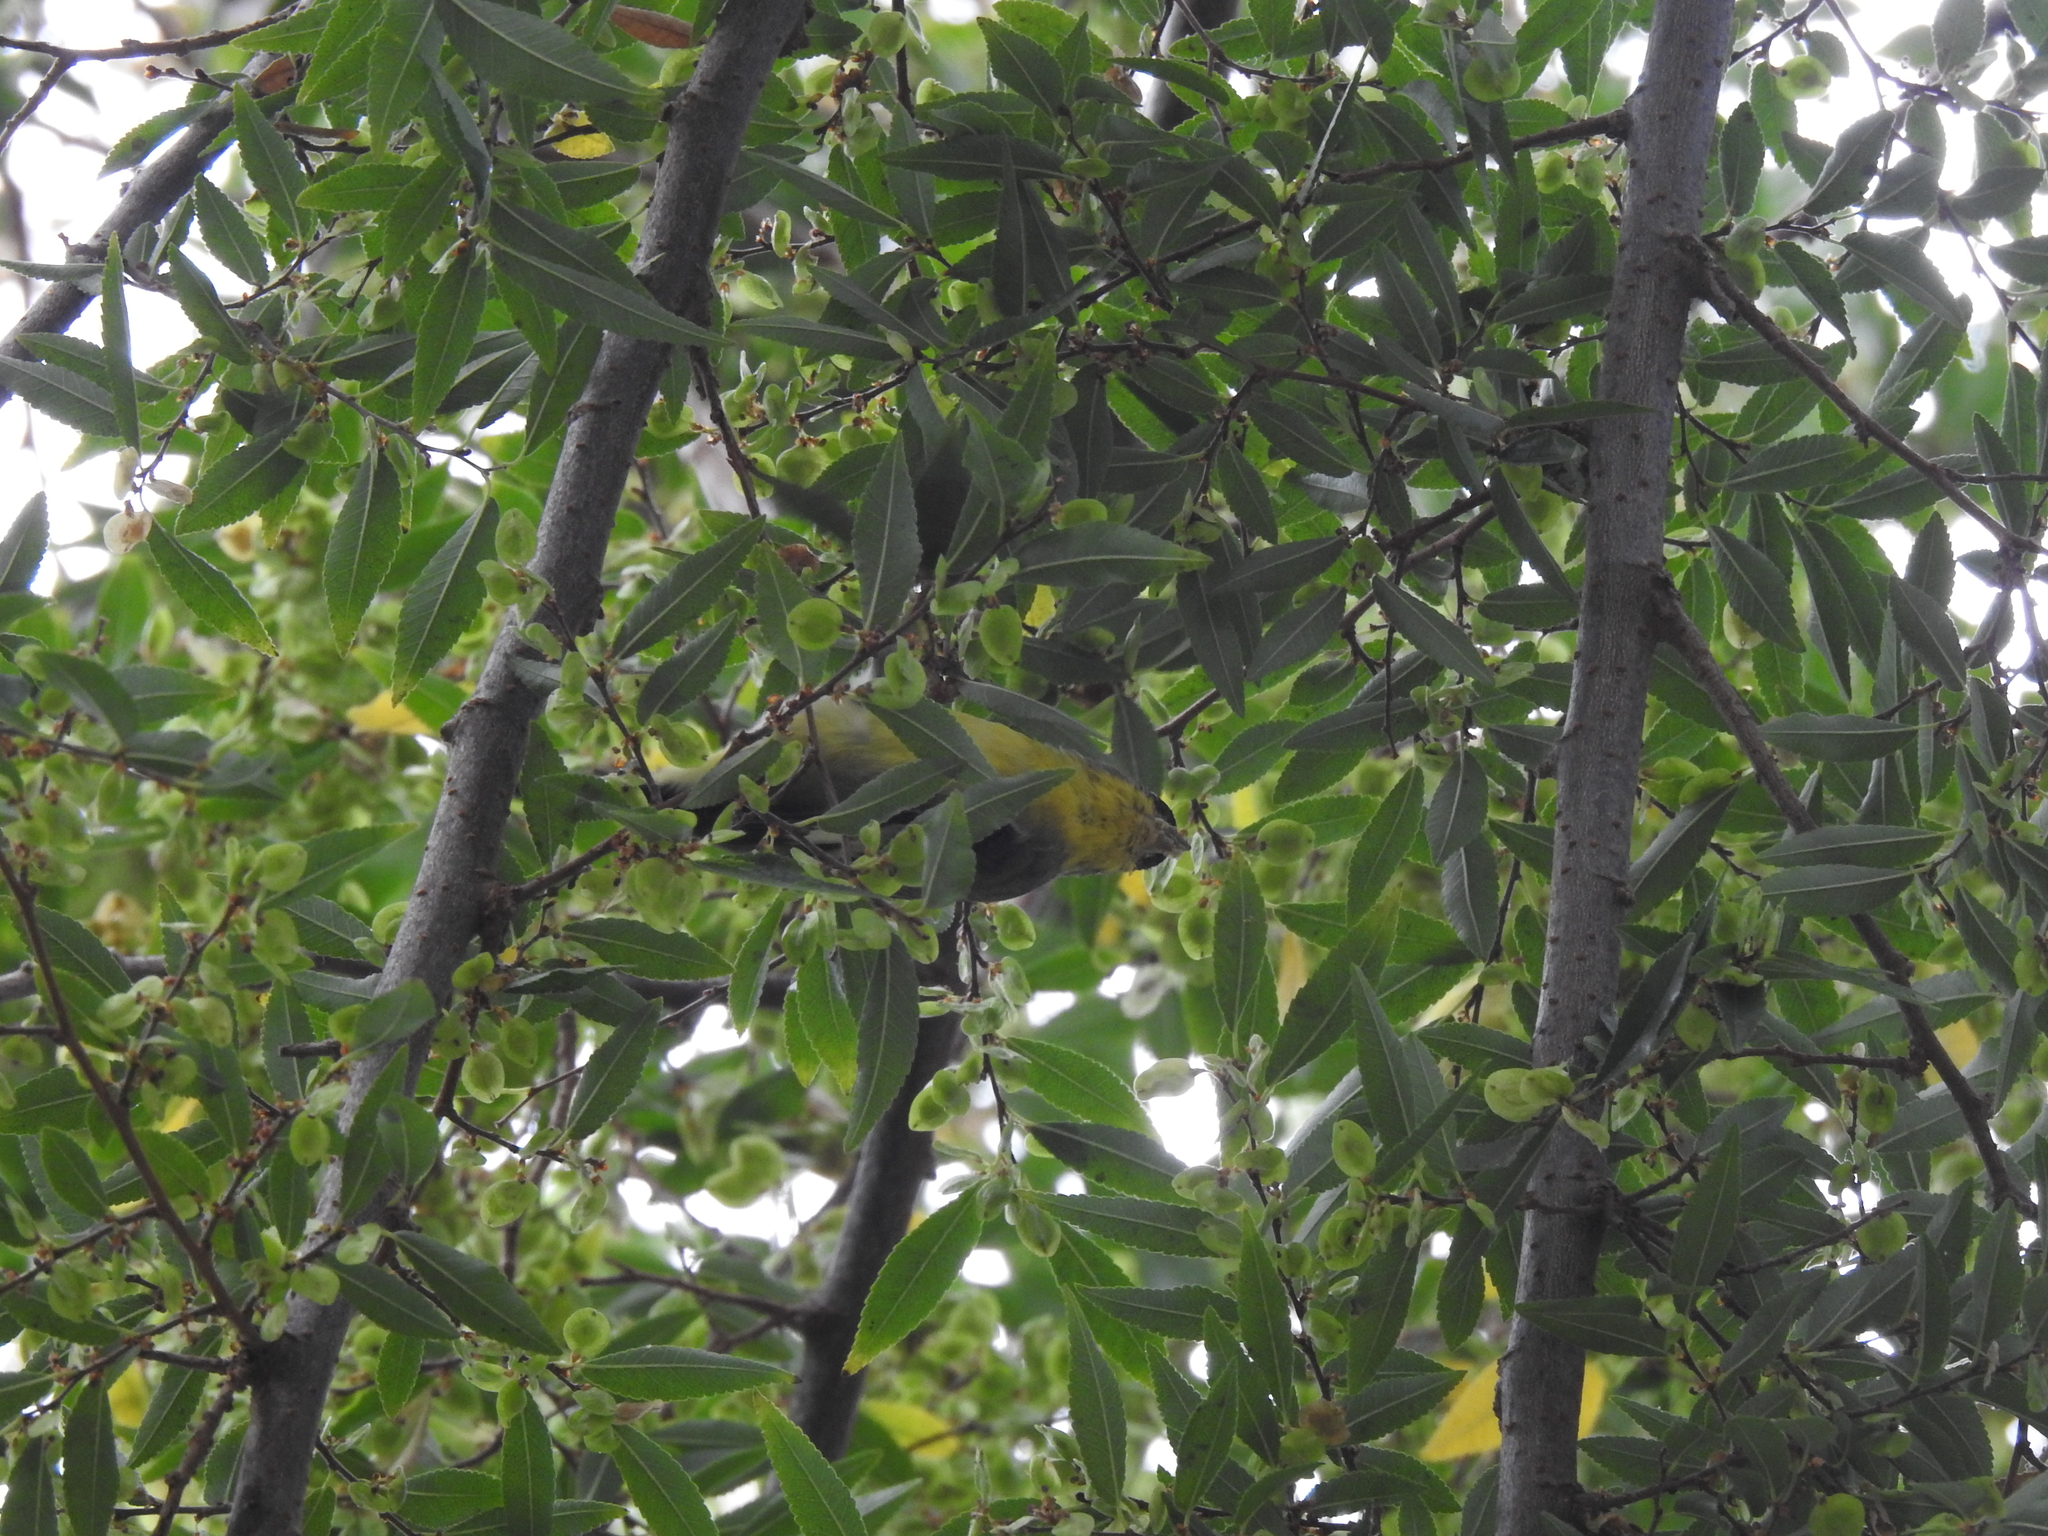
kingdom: Animalia
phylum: Chordata
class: Aves
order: Passeriformes
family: Fringillidae
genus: Spinus
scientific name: Spinus psaltria
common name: Lesser goldfinch
